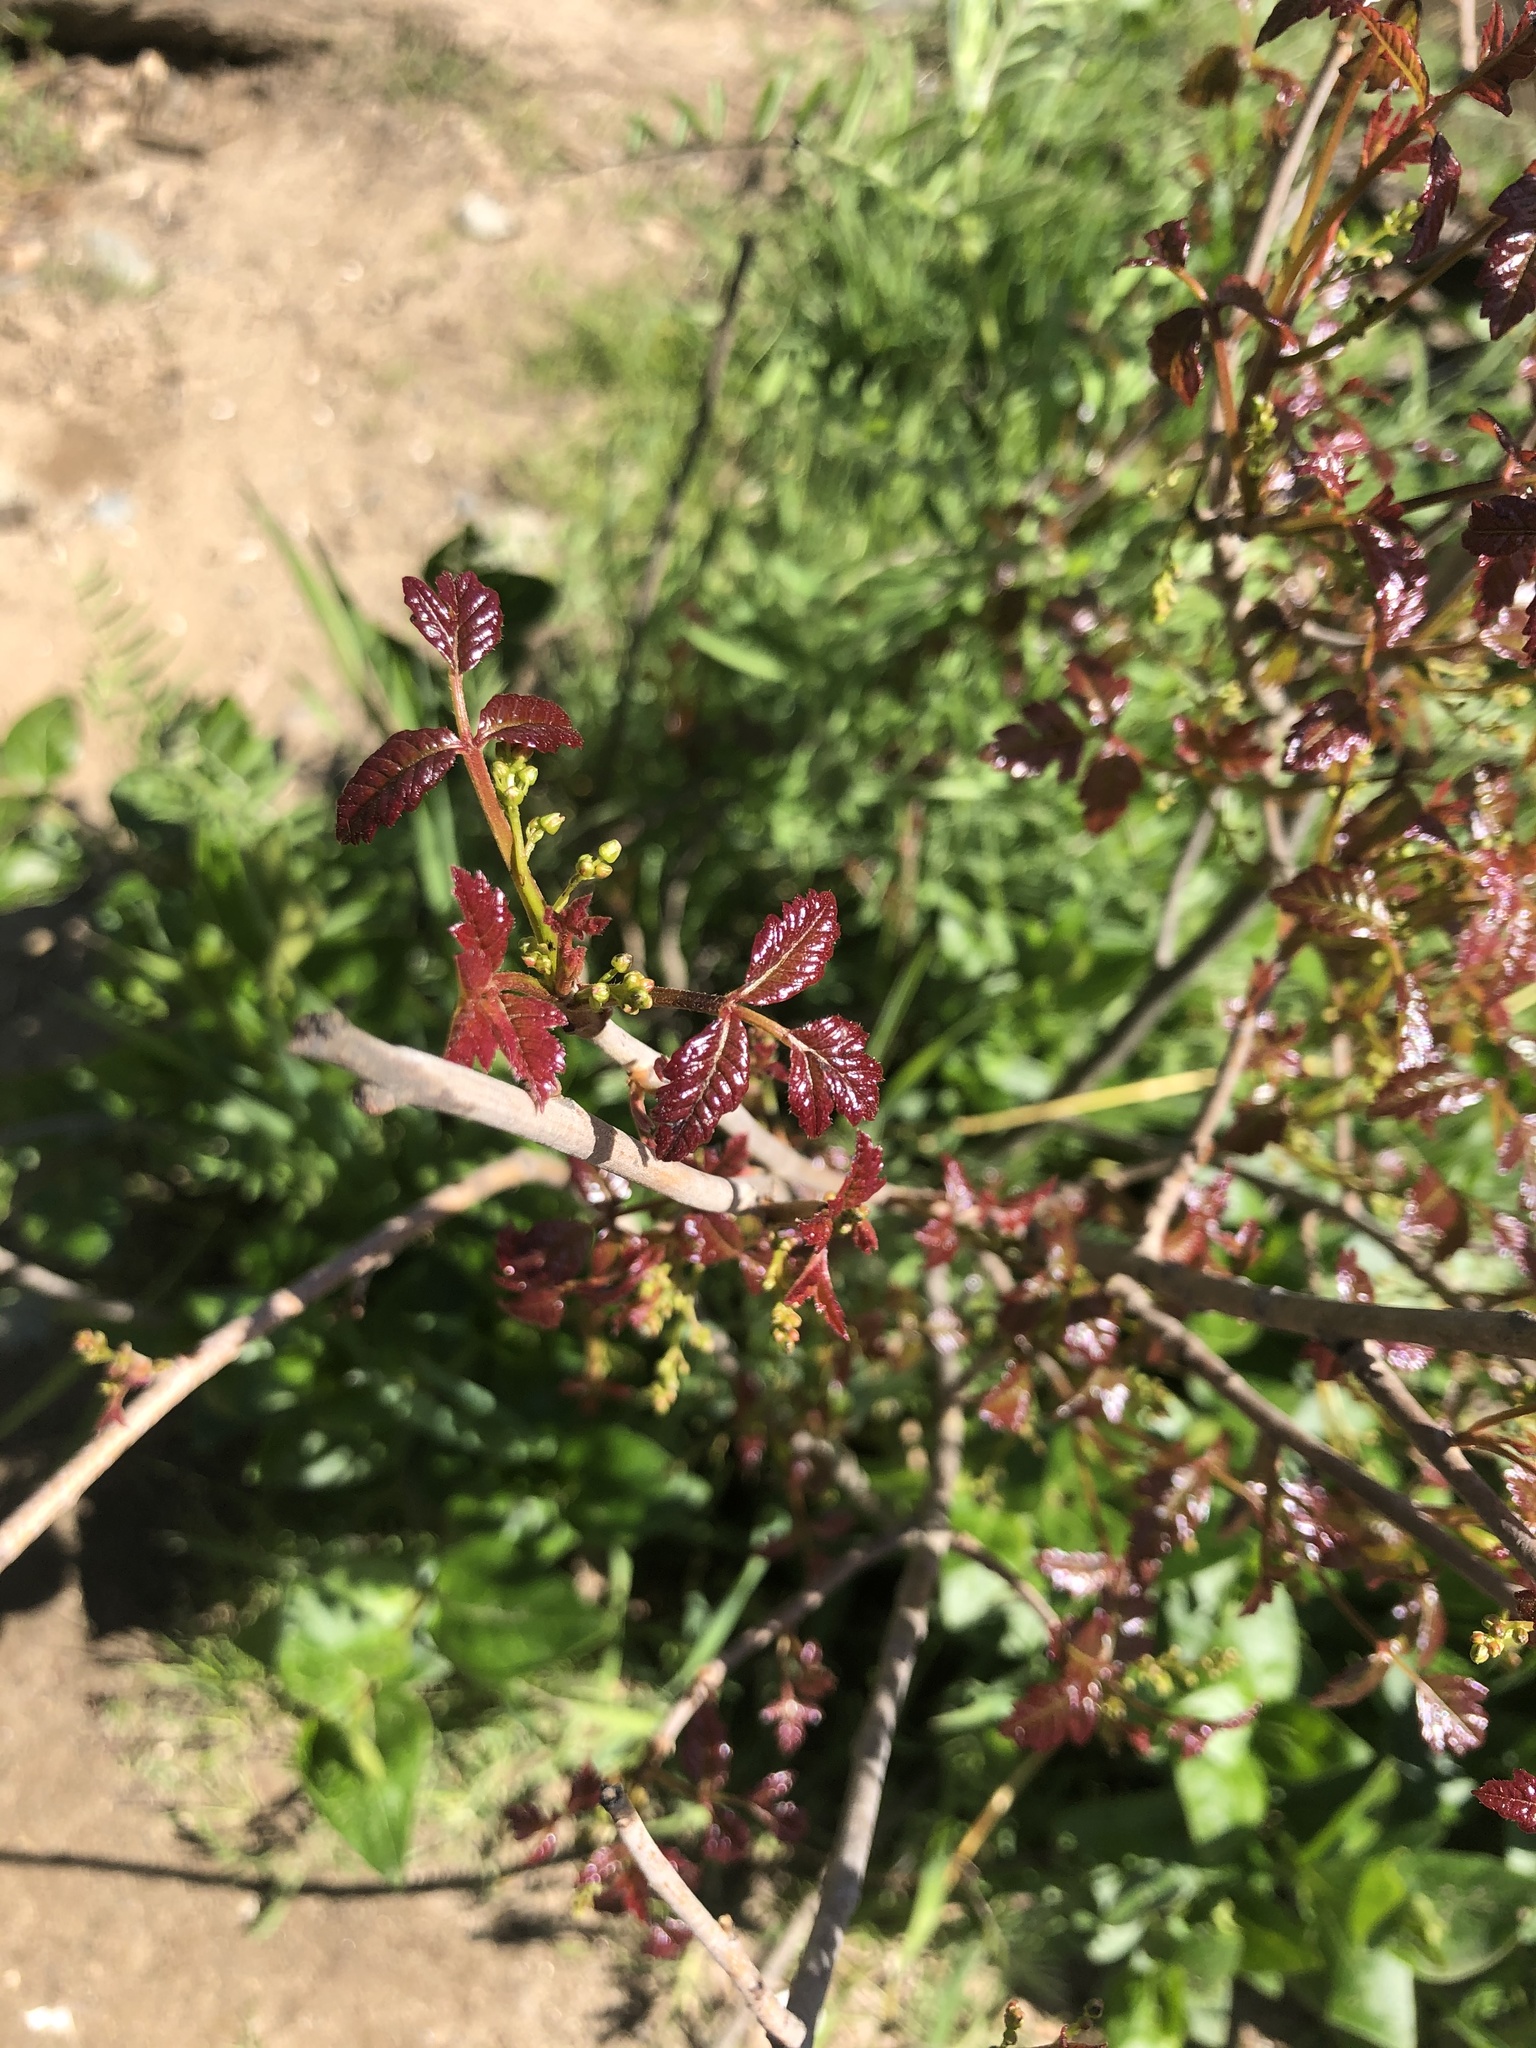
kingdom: Plantae
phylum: Tracheophyta
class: Magnoliopsida
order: Sapindales
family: Anacardiaceae
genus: Toxicodendron
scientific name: Toxicodendron diversilobum
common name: Pacific poison-oak
